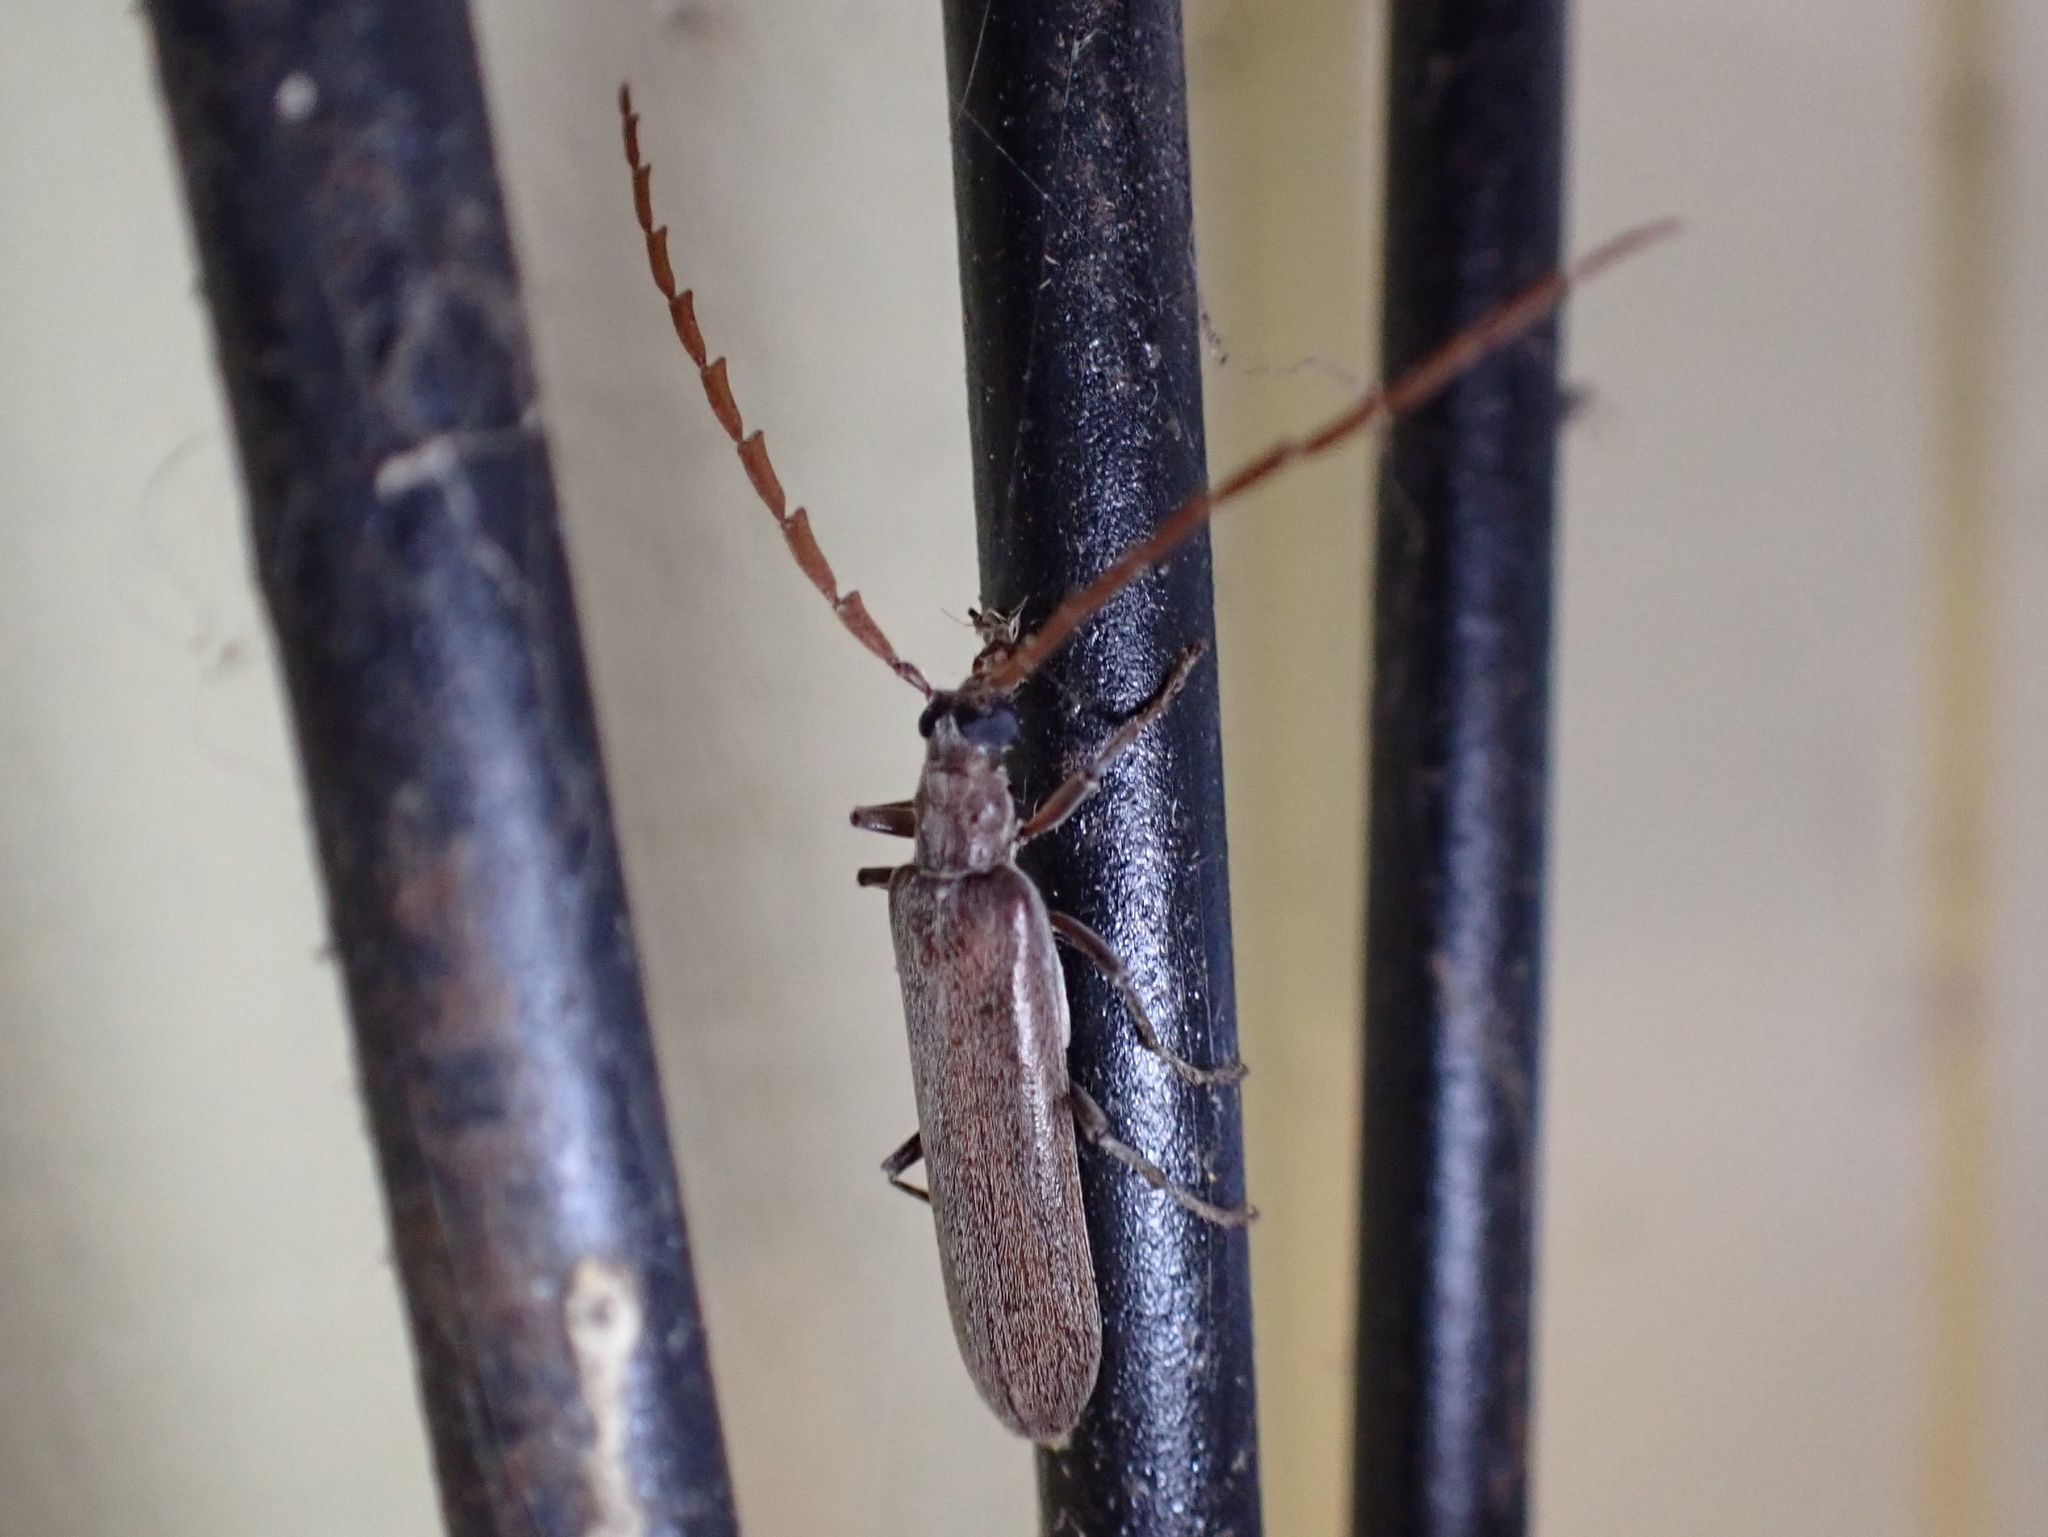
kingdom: Animalia
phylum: Arthropoda
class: Insecta
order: Coleoptera
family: Oedemeridae
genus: Calopus
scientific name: Calopus angustus
